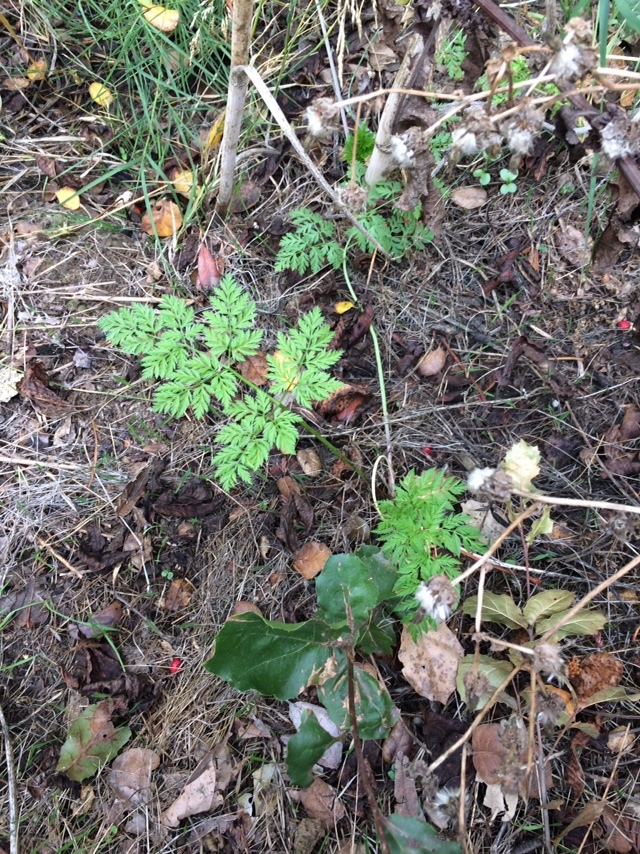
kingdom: Plantae
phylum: Tracheophyta
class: Magnoliopsida
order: Apiales
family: Apiaceae
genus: Conium
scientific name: Conium maculatum
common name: Hemlock
